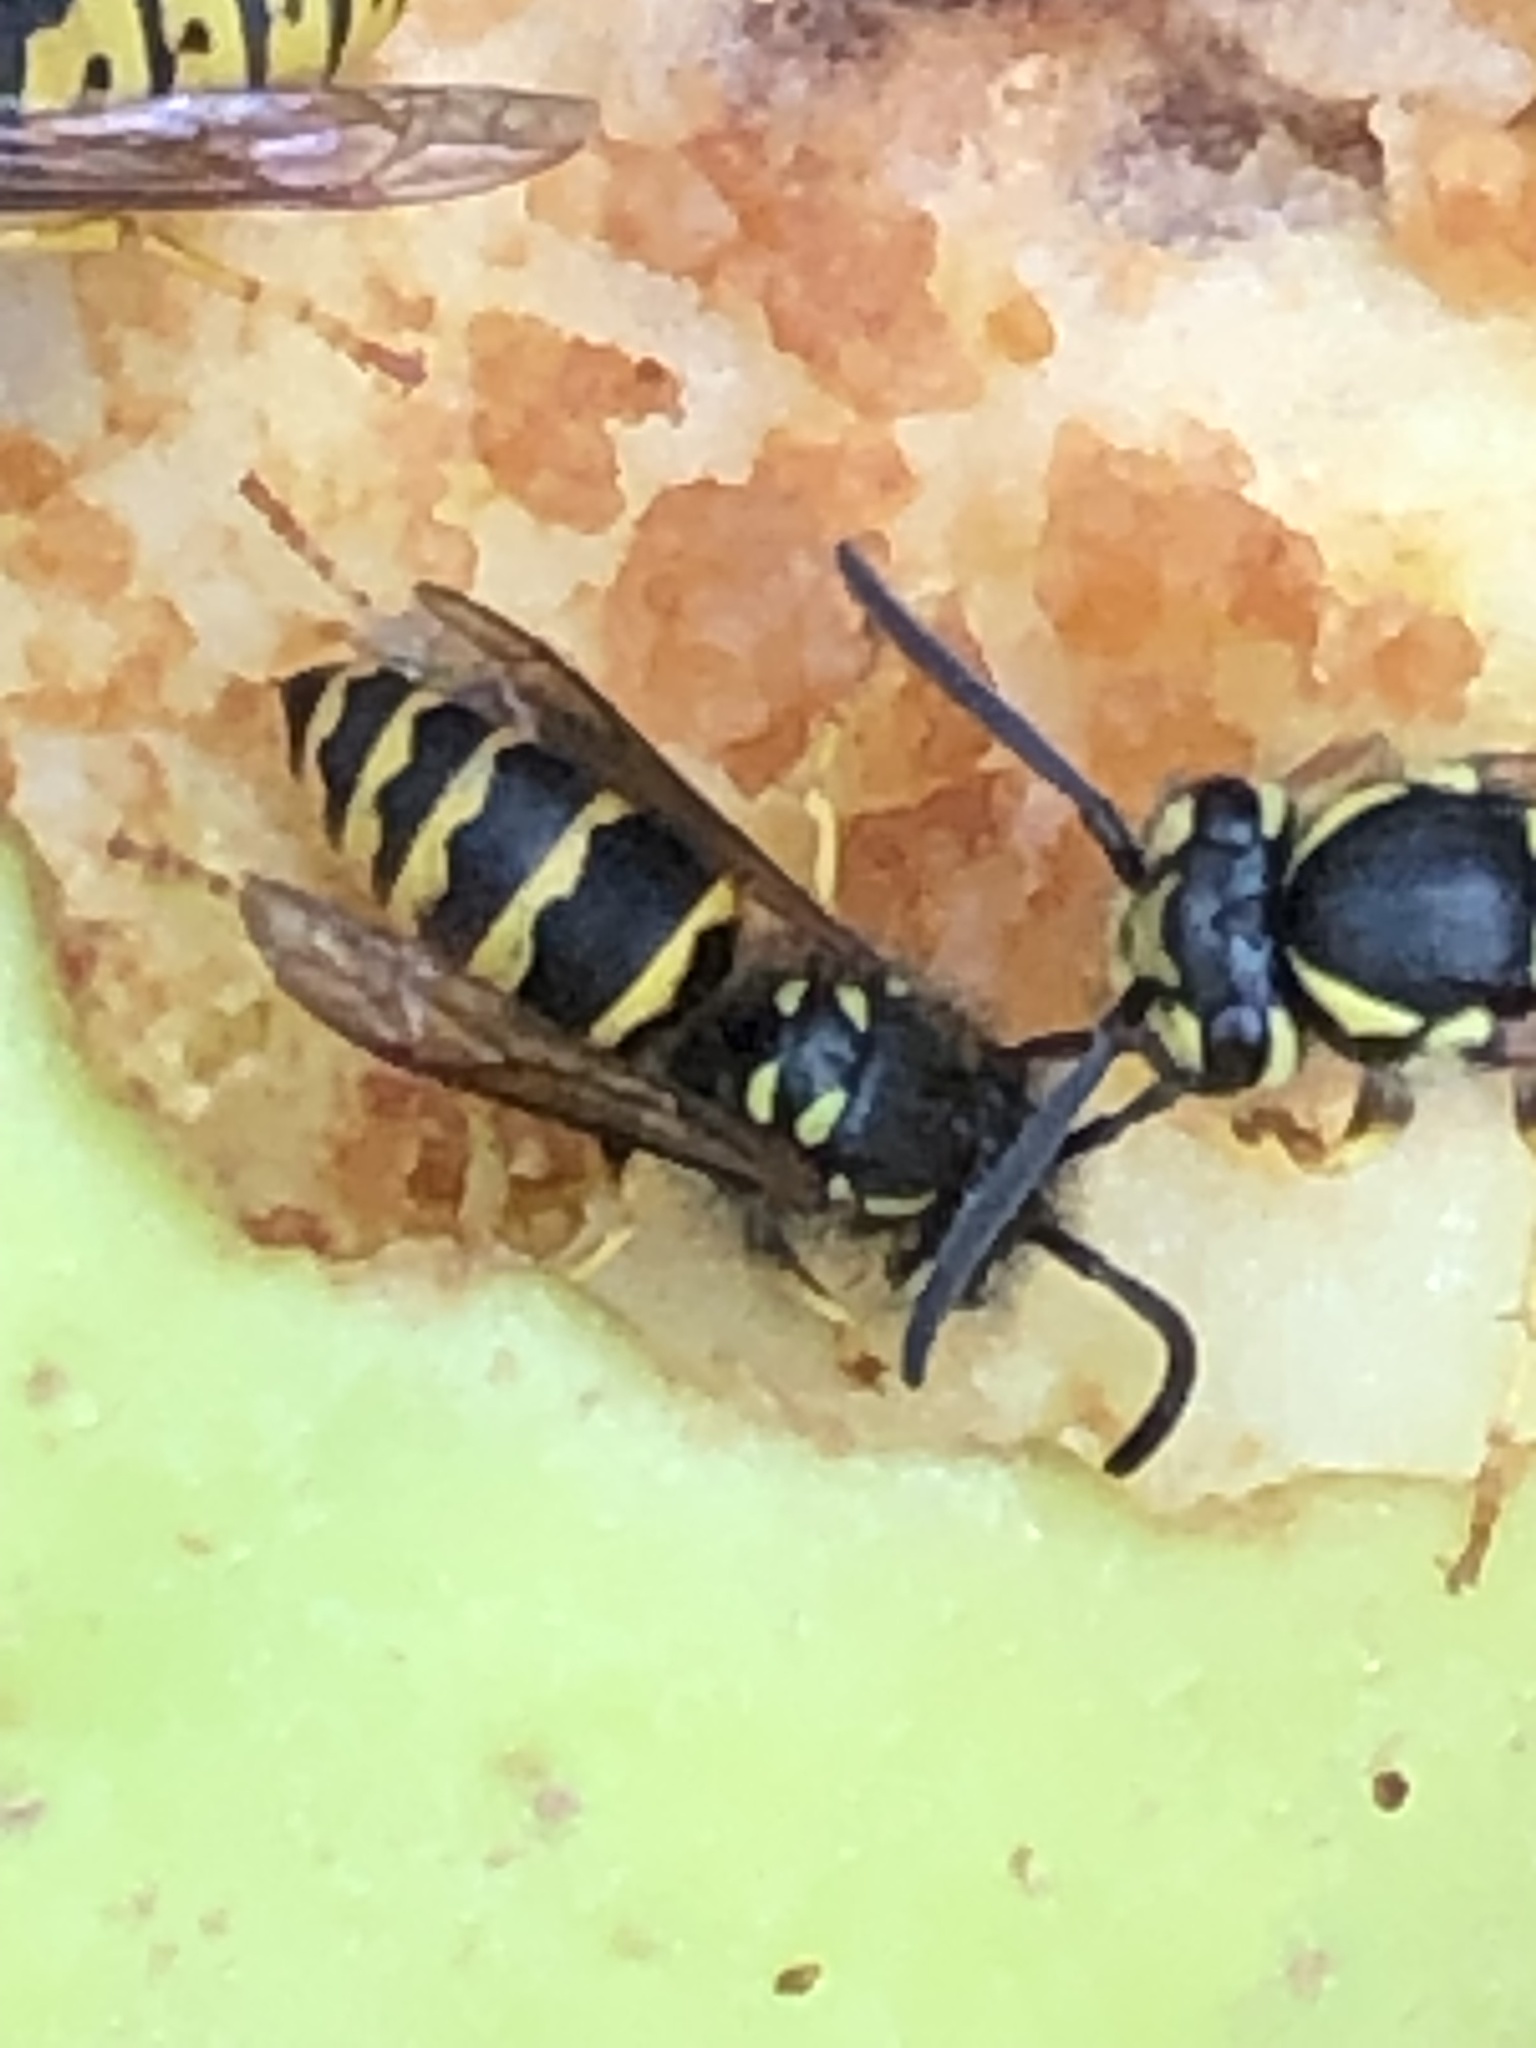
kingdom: Animalia
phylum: Arthropoda
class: Insecta
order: Hymenoptera
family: Vespidae
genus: Vespula
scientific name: Vespula alascensis
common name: Alaska yellowjacket
